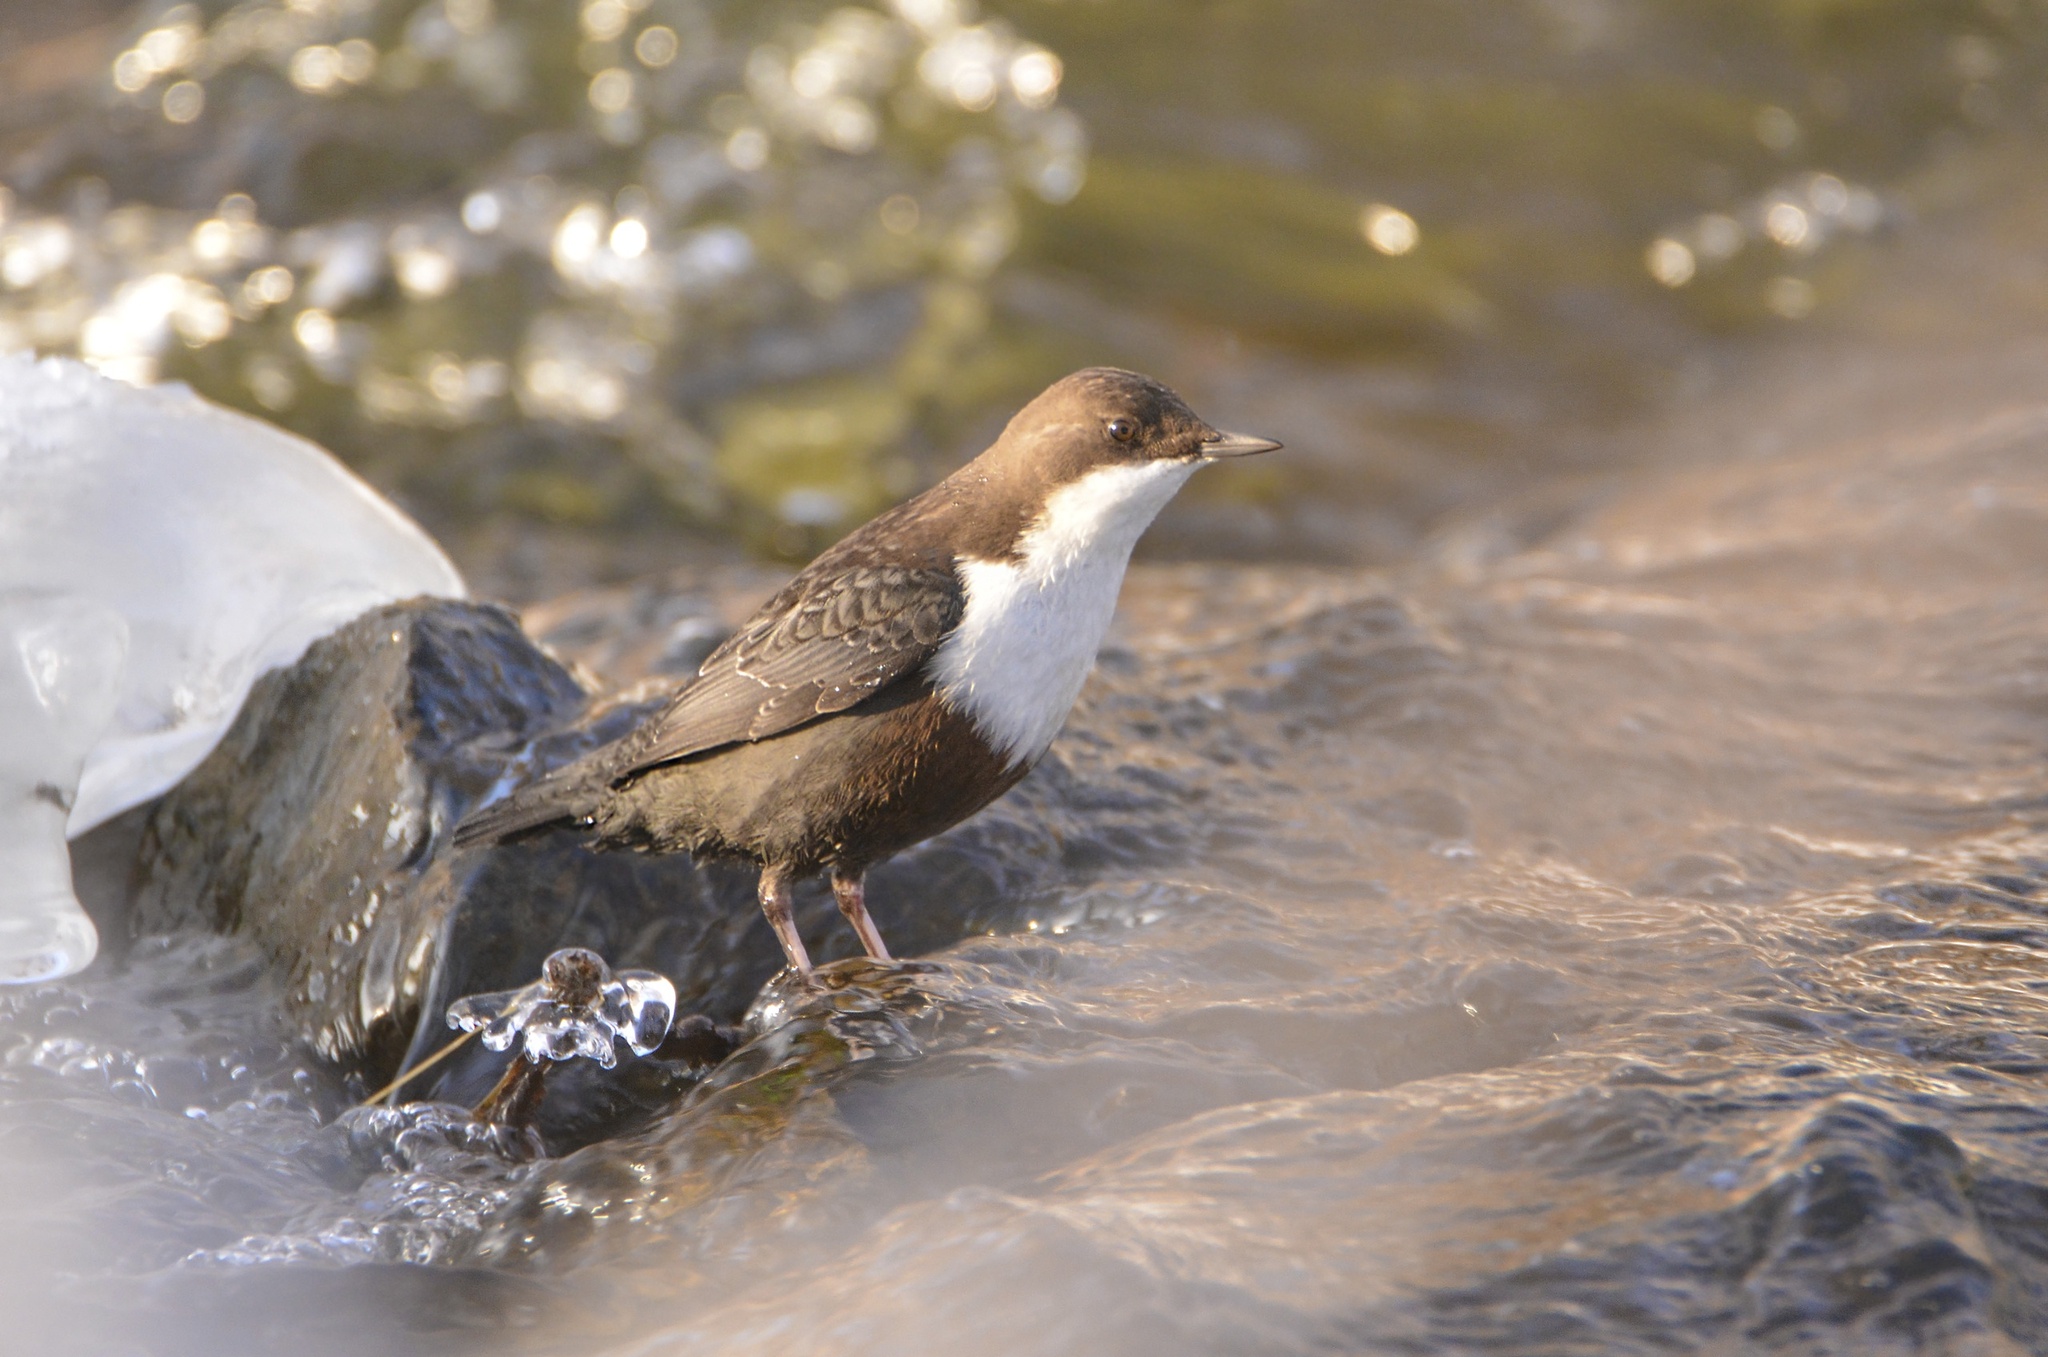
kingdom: Animalia
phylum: Chordata
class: Aves
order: Passeriformes
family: Cinclidae
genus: Cinclus
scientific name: Cinclus cinclus
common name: White-throated dipper
